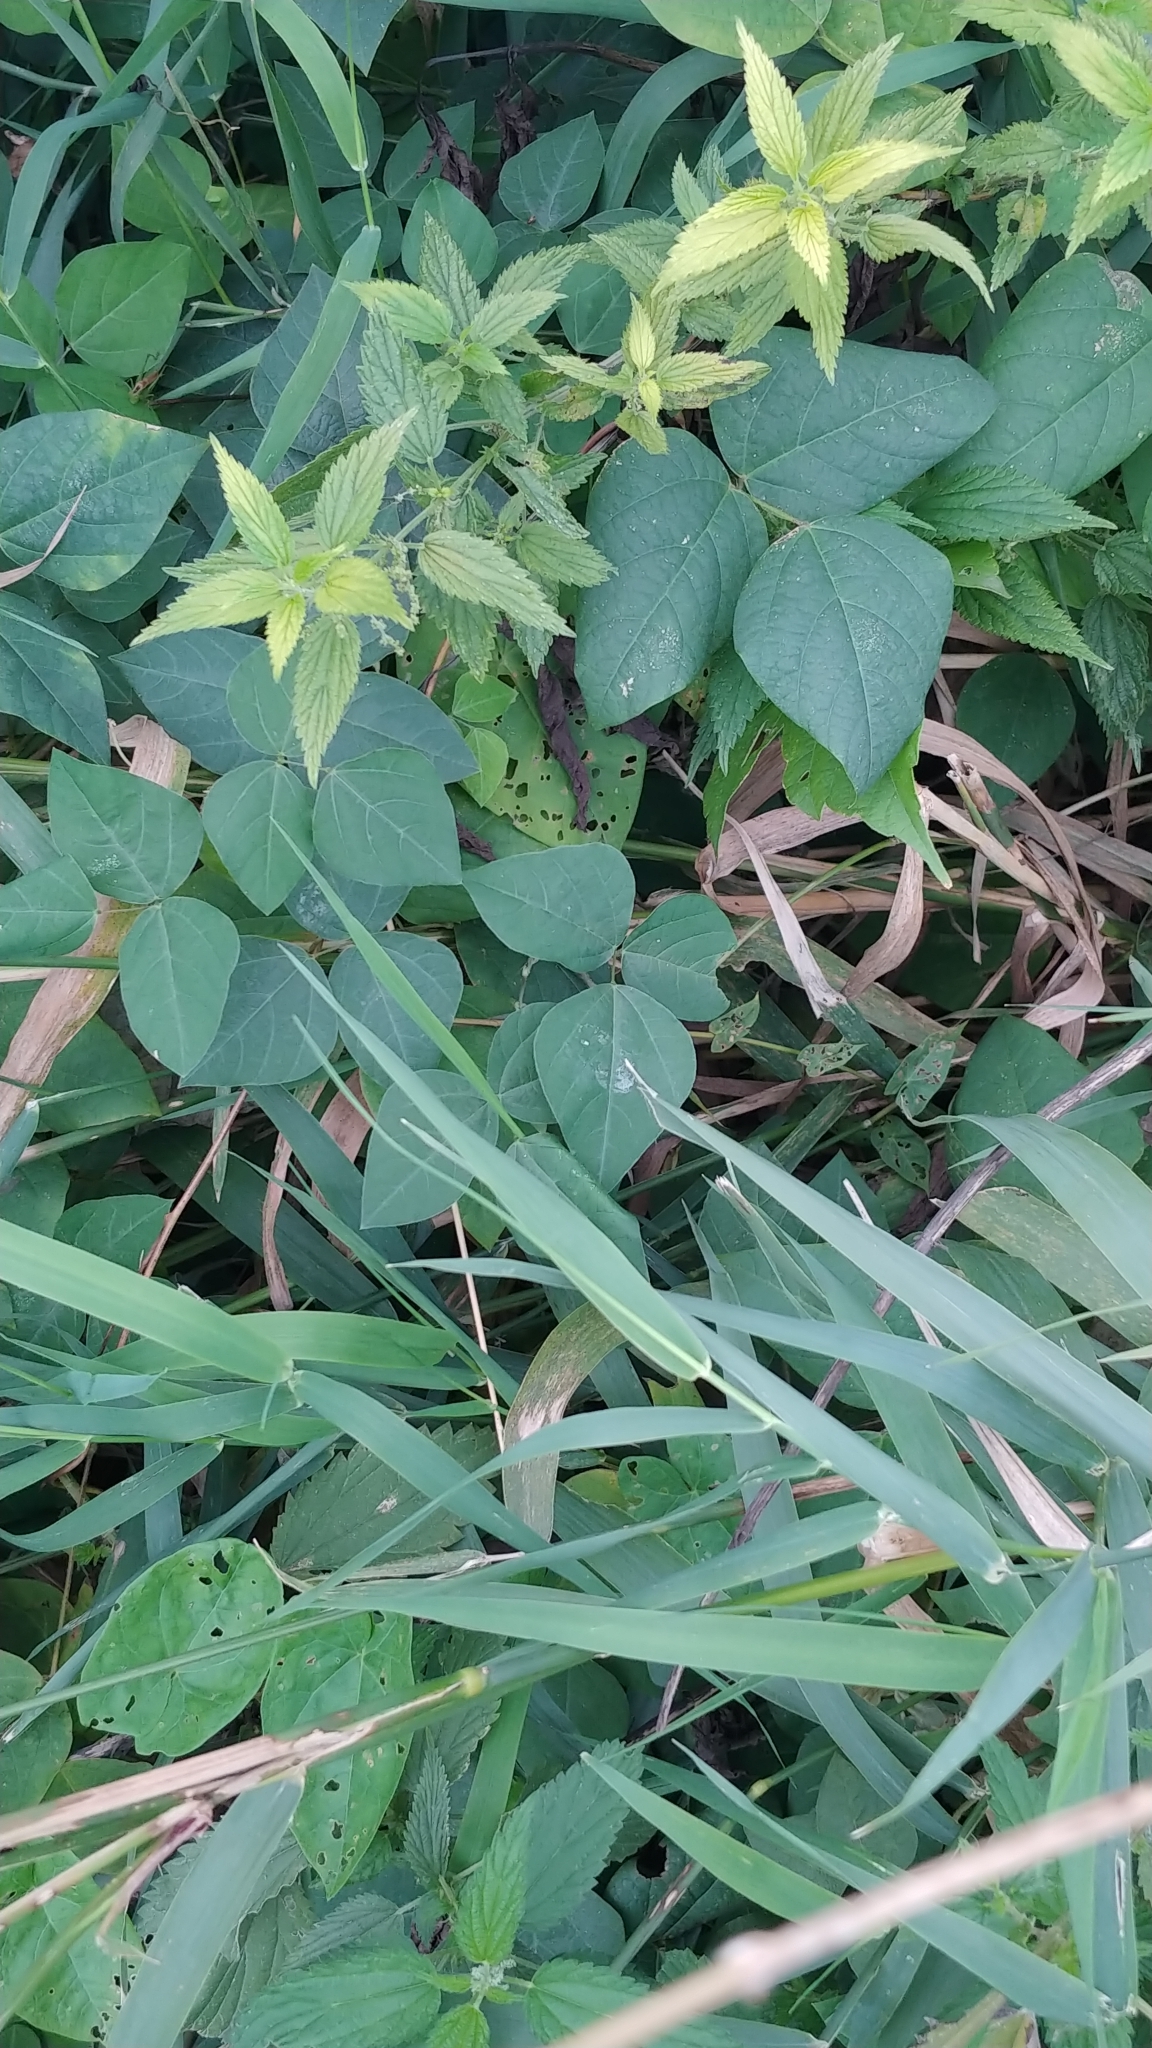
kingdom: Plantae
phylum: Tracheophyta
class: Magnoliopsida
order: Fabales
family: Fabaceae
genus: Amphicarpaea
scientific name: Amphicarpaea bracteata
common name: American hog peanut
